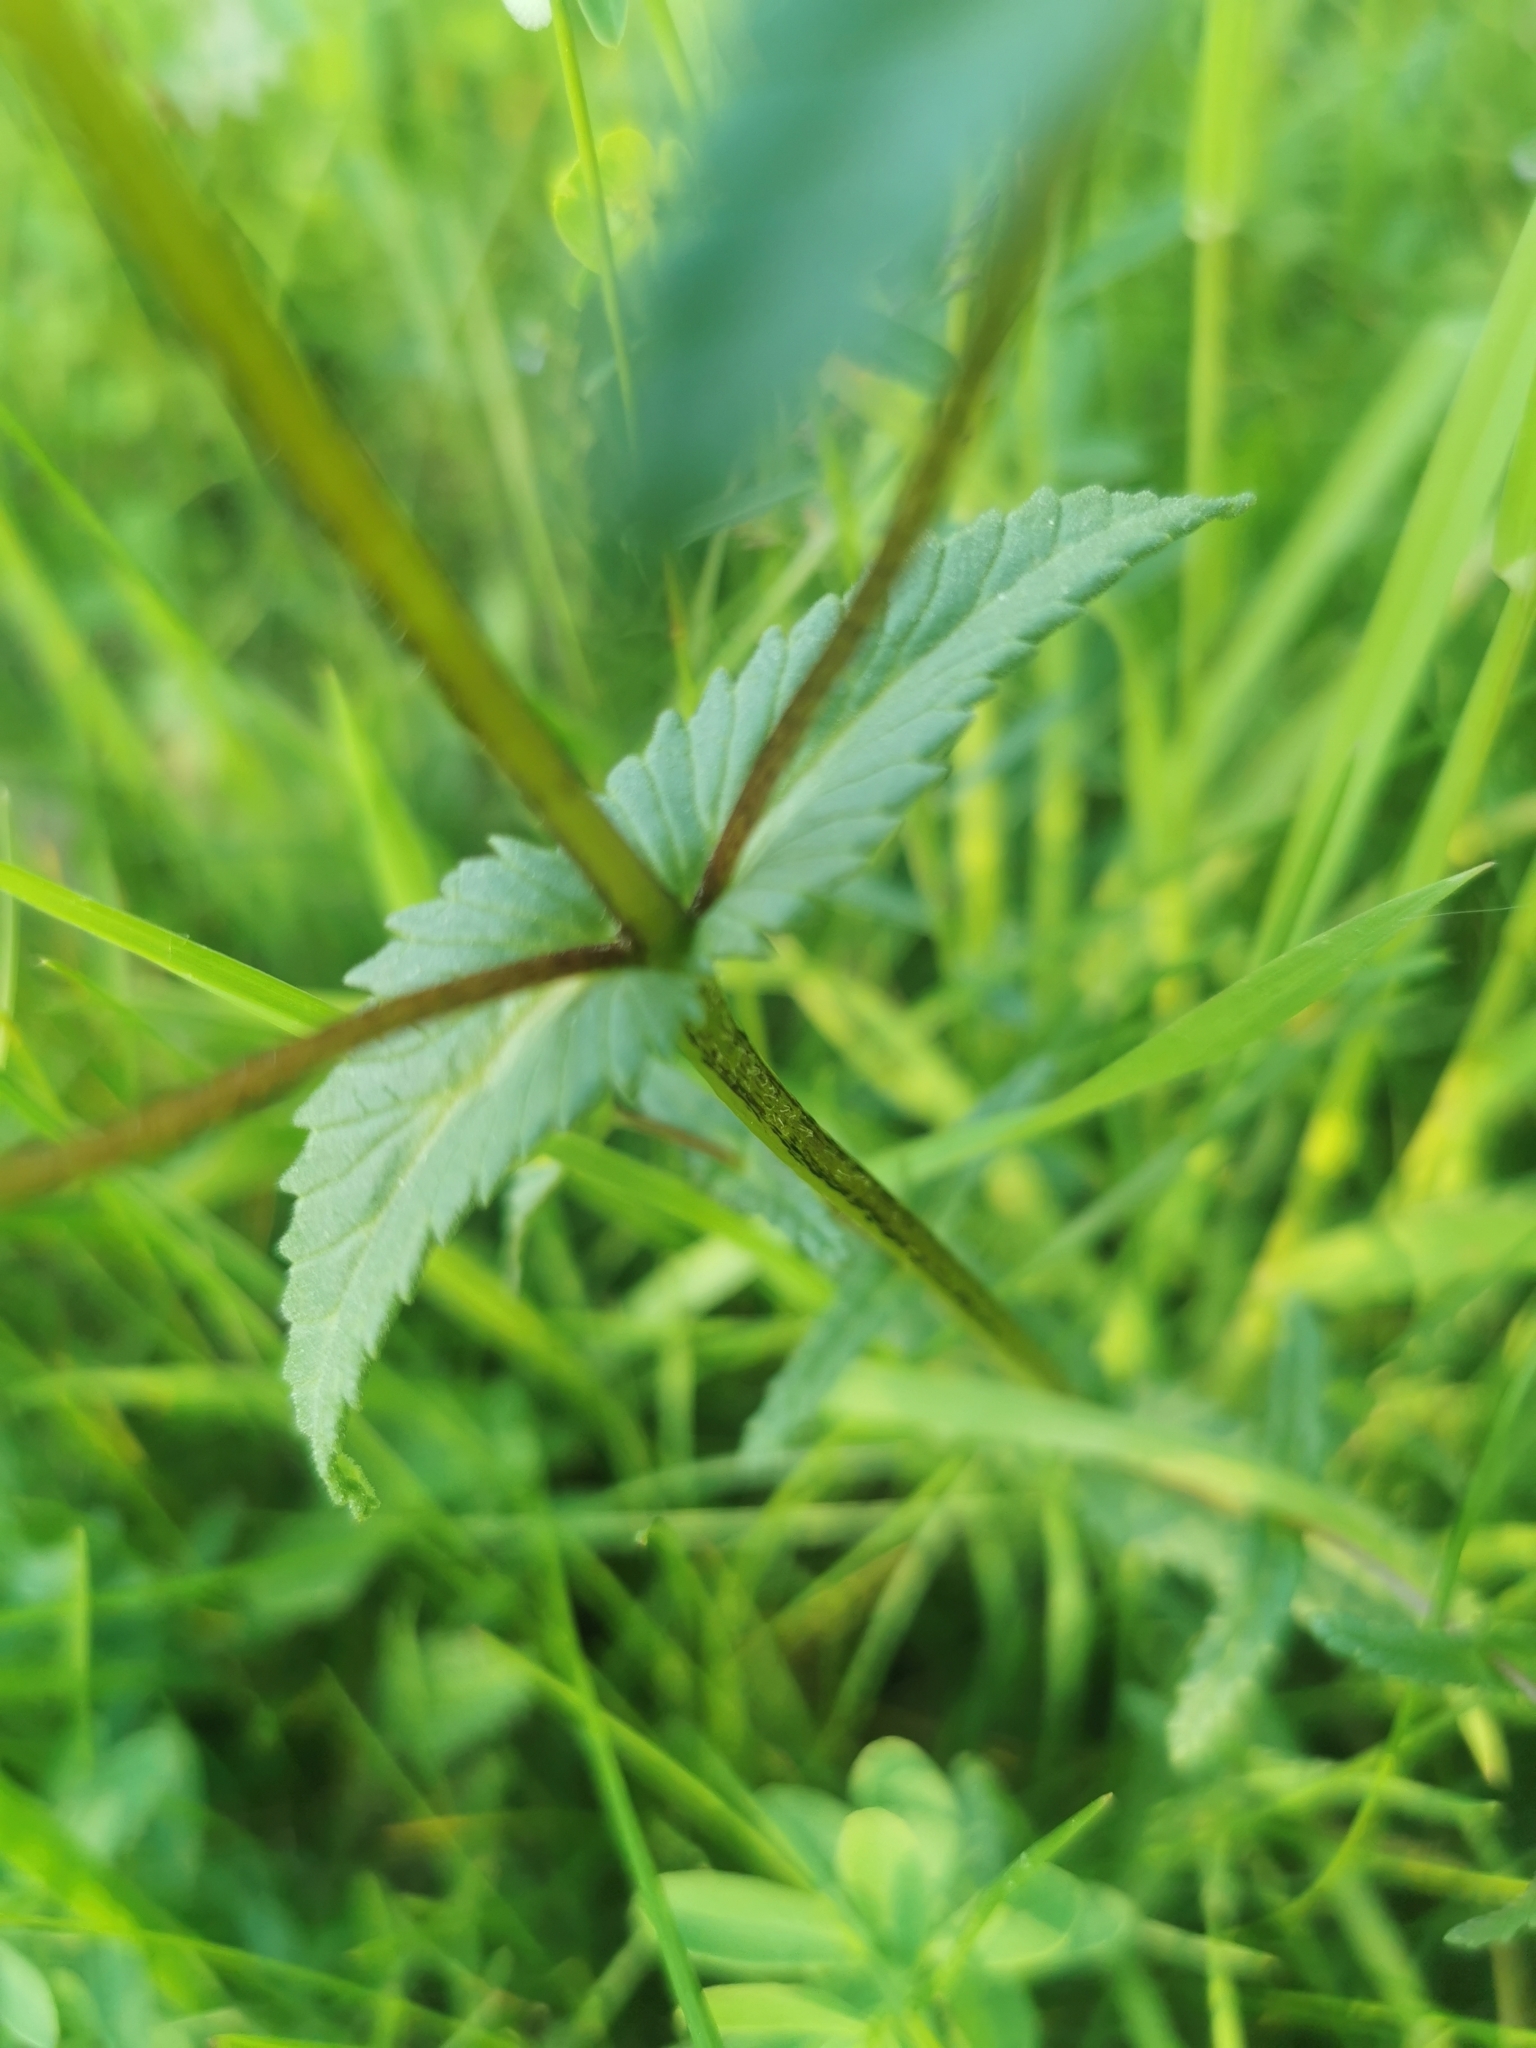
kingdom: Plantae
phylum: Tracheophyta
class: Magnoliopsida
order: Lamiales
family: Orobanchaceae
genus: Rhinanthus
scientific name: Rhinanthus minor
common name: Yellow-rattle
